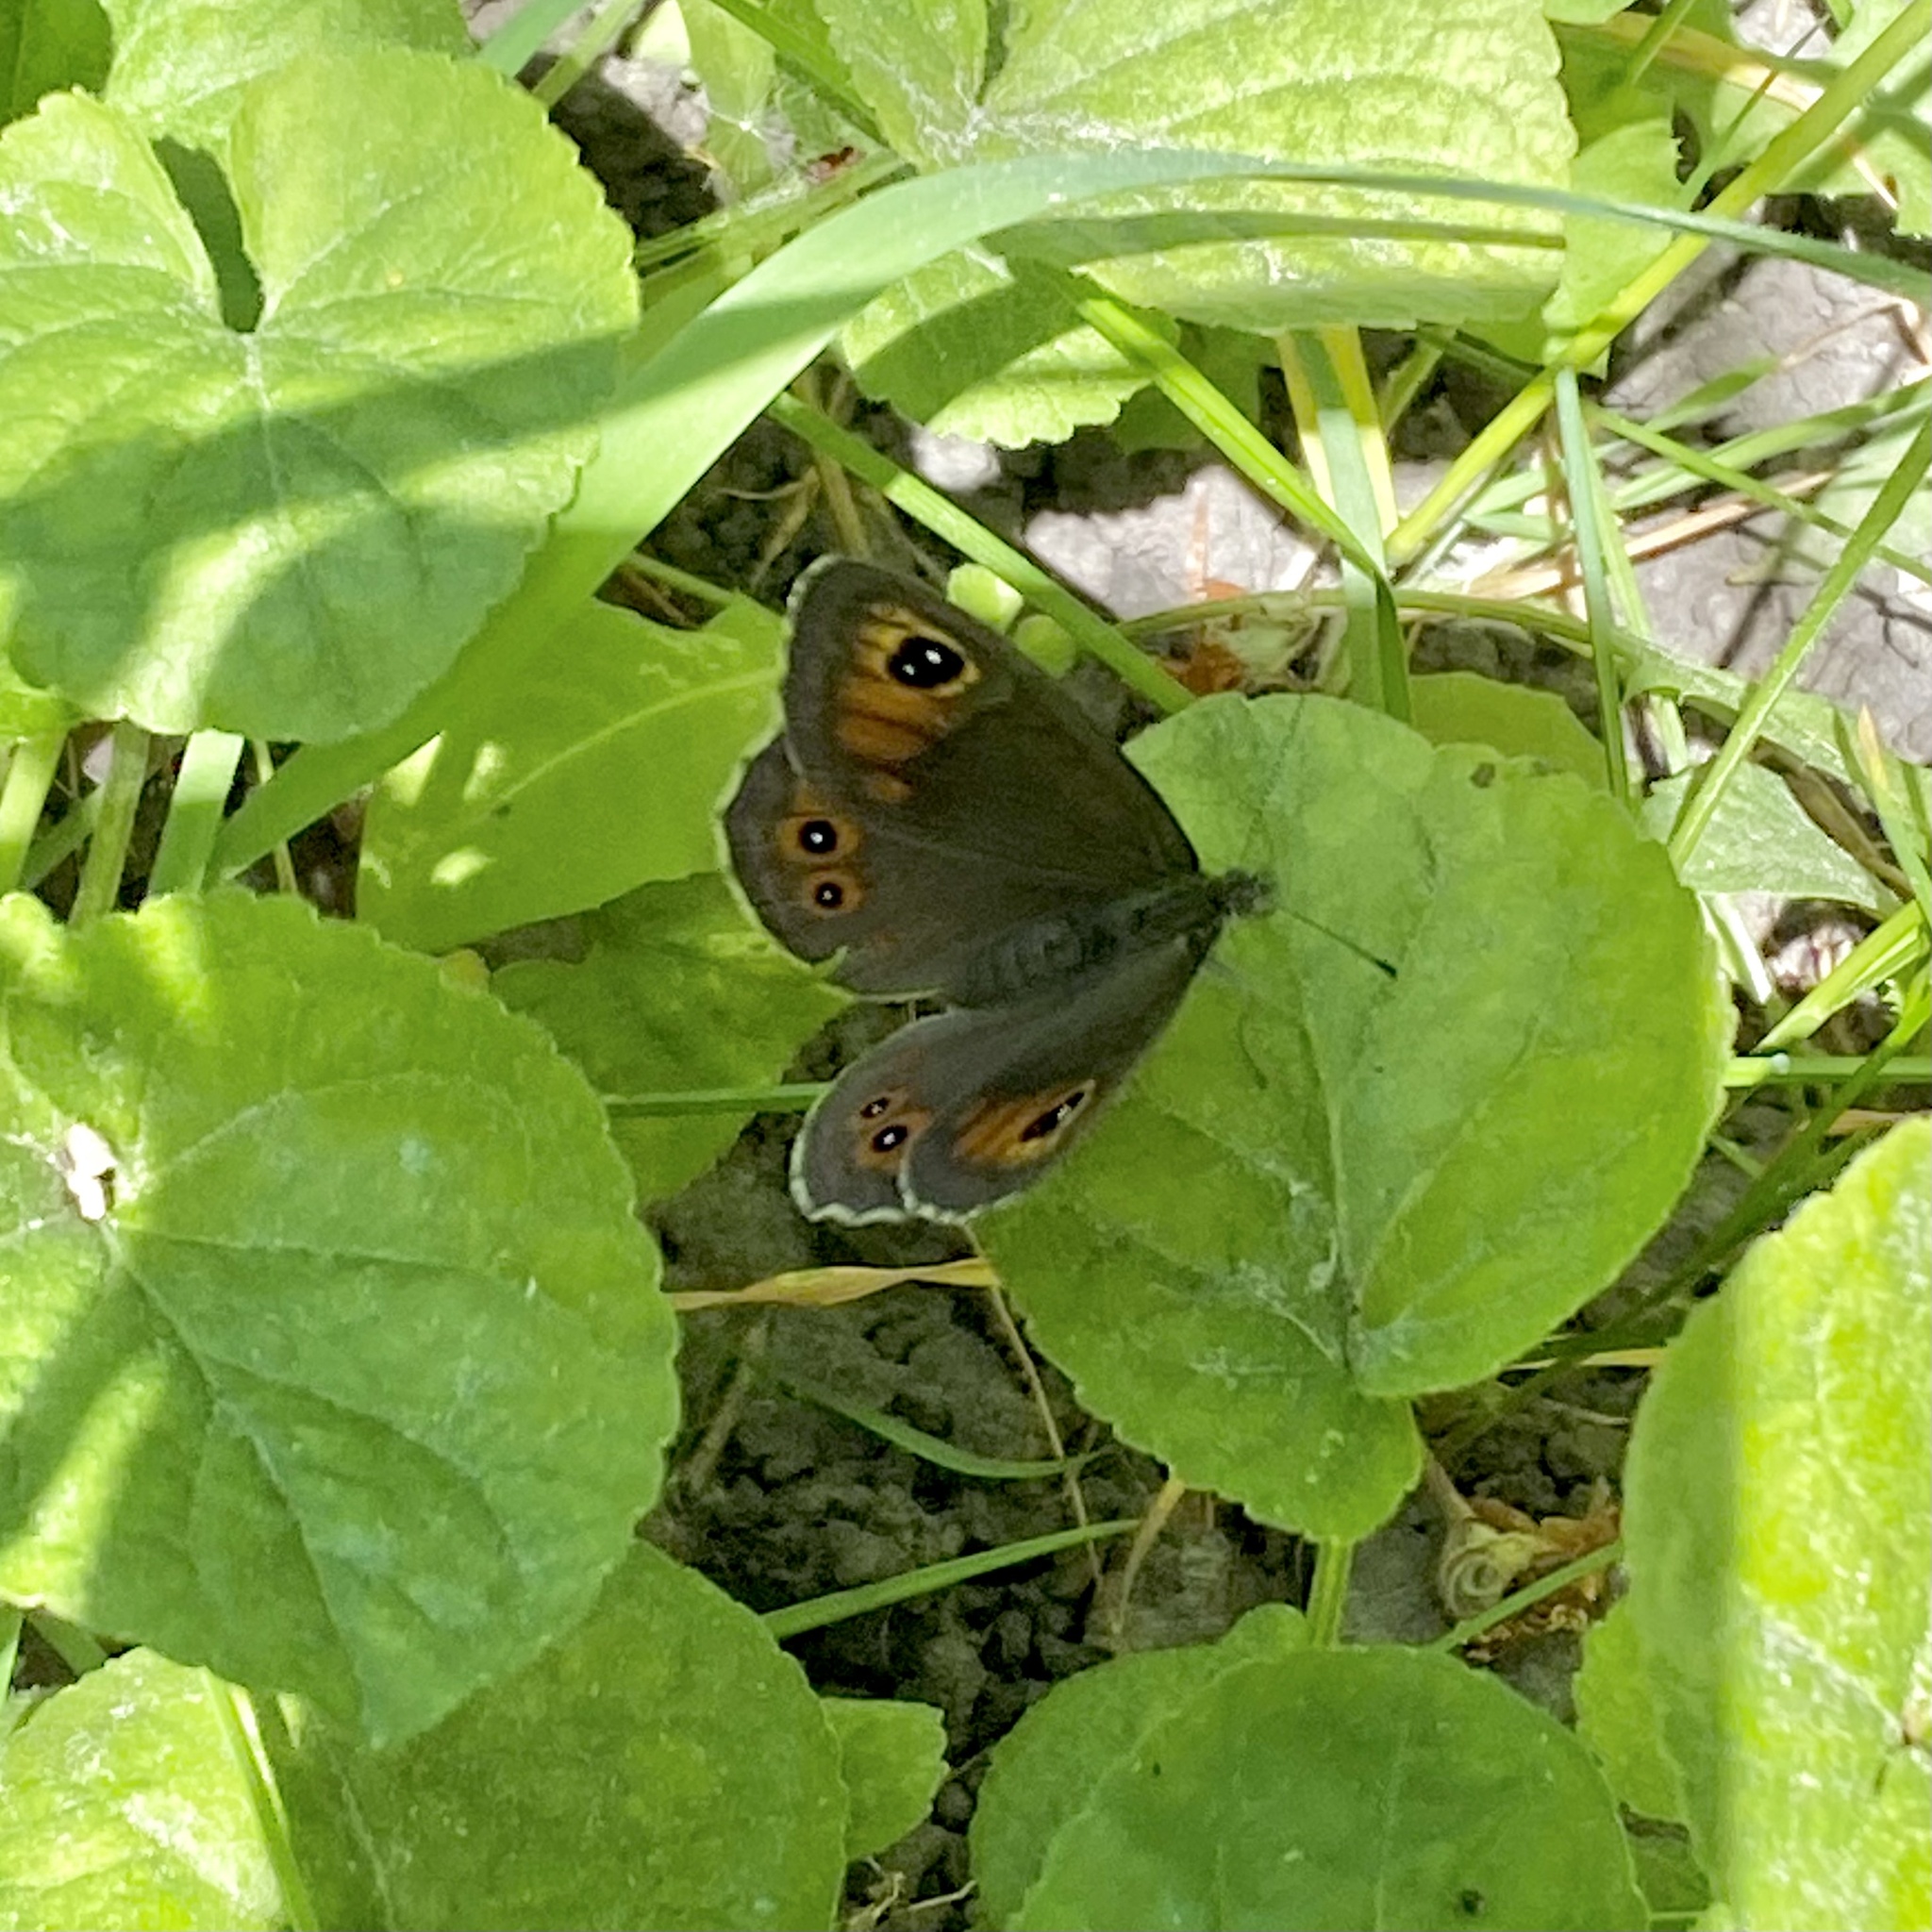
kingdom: Animalia
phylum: Arthropoda
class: Insecta
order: Lepidoptera
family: Nymphalidae
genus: Pararge
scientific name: Pararge Lasiommata maera
